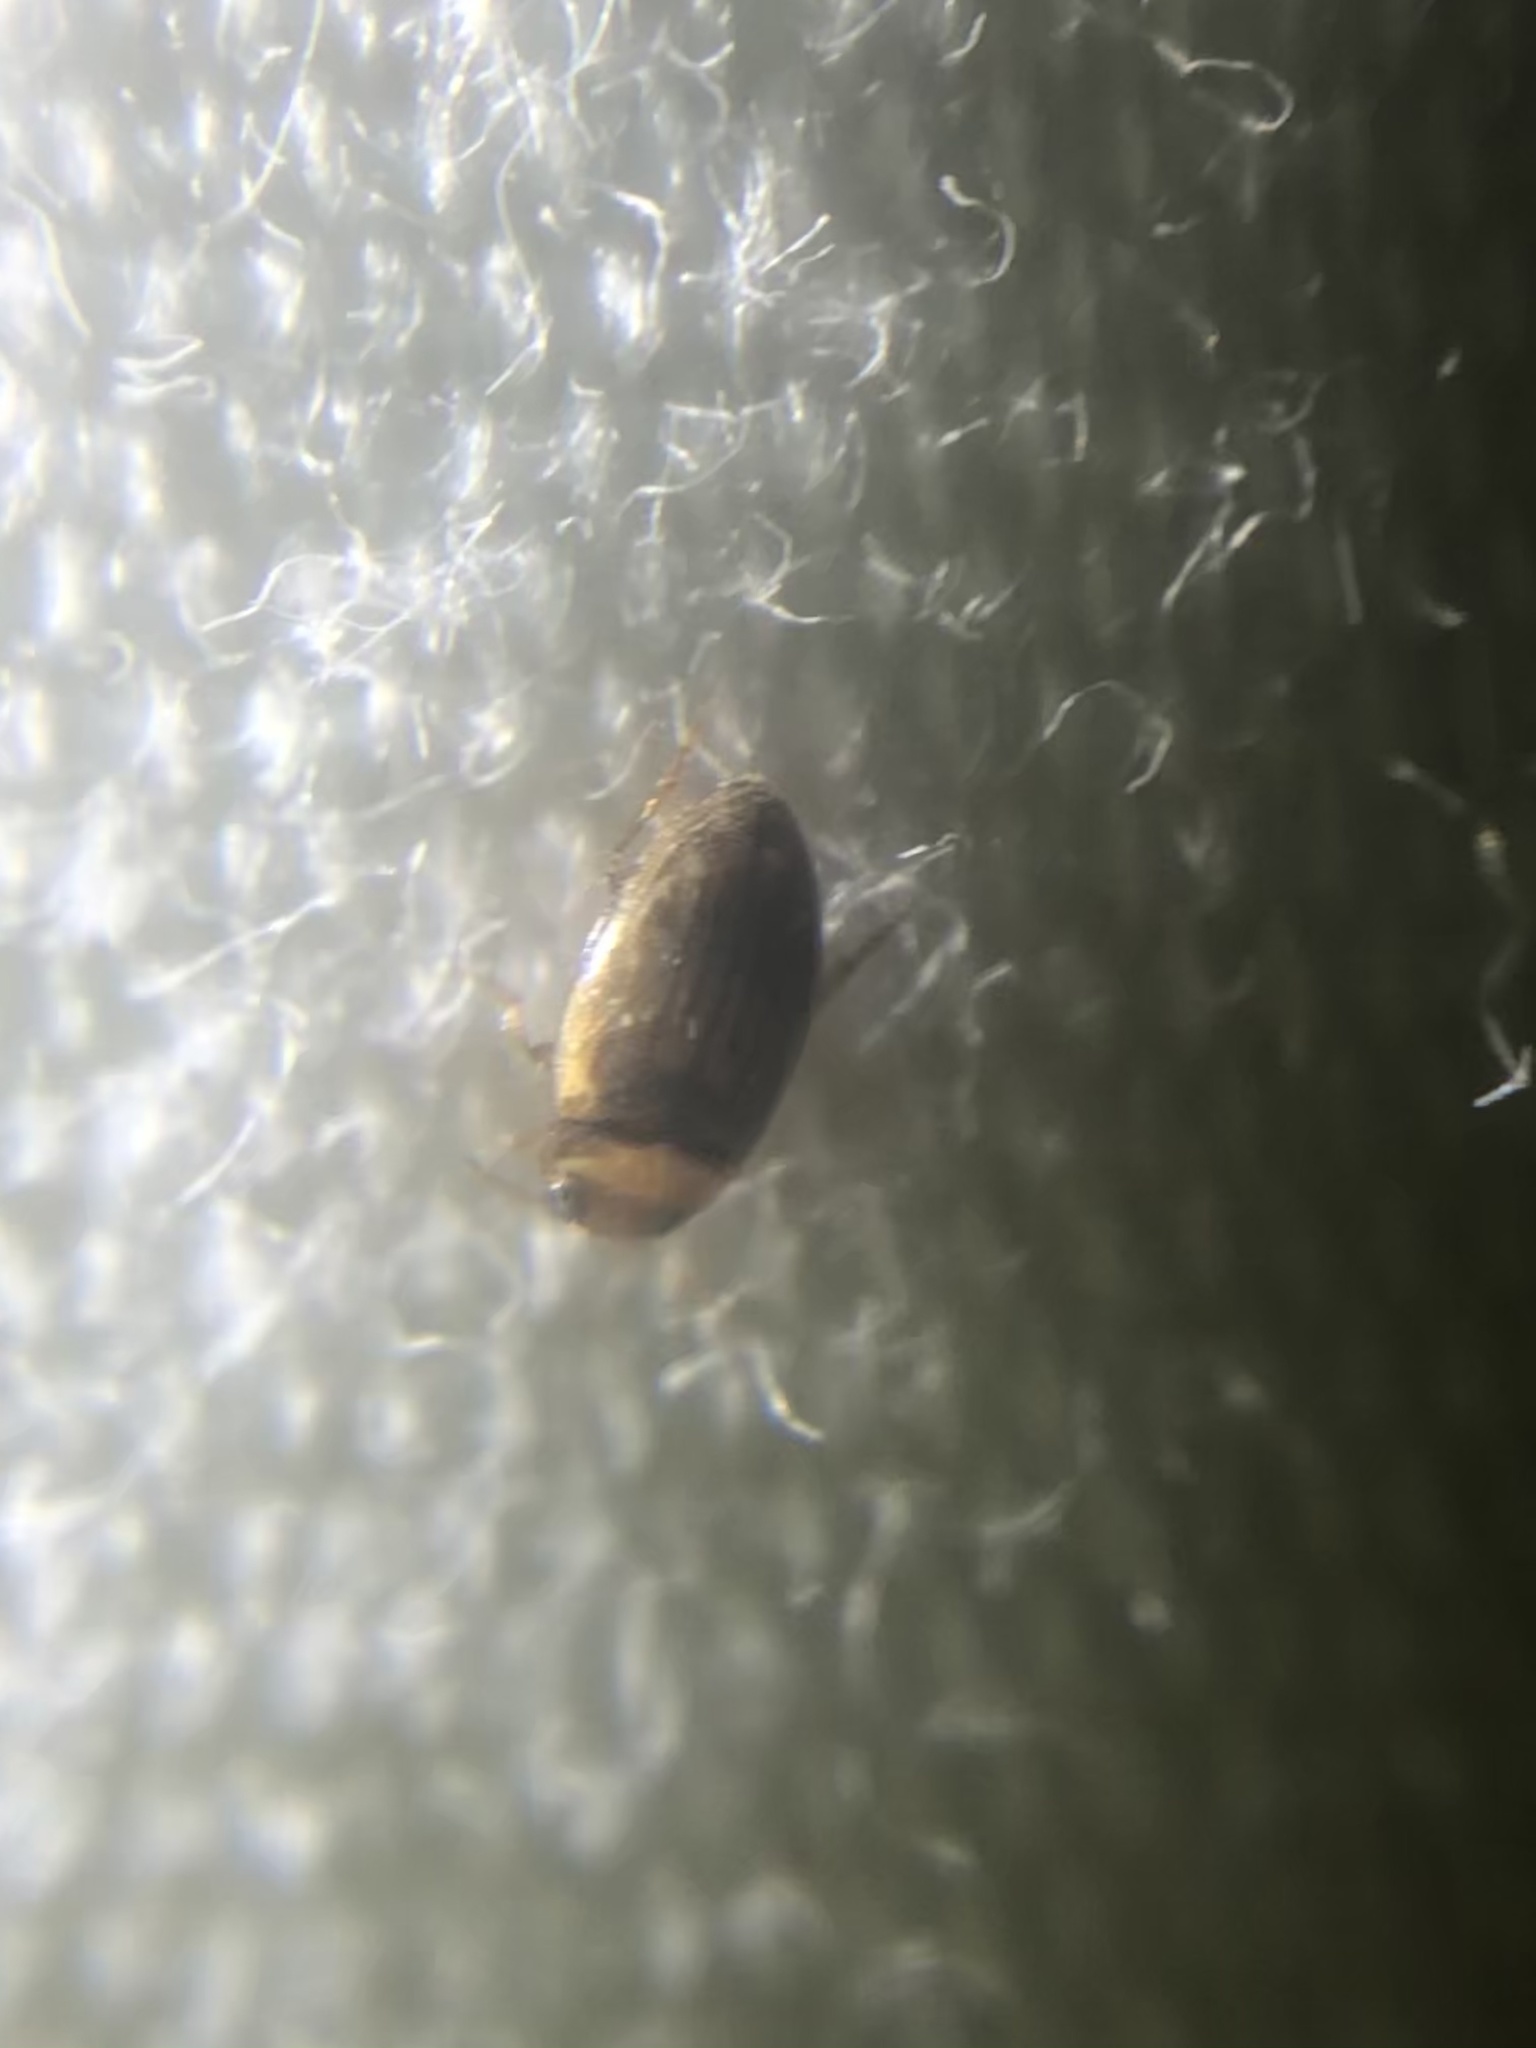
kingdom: Animalia
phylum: Arthropoda
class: Insecta
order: Coleoptera
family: Dytiscidae
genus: Neobidessus
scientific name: Neobidessus
